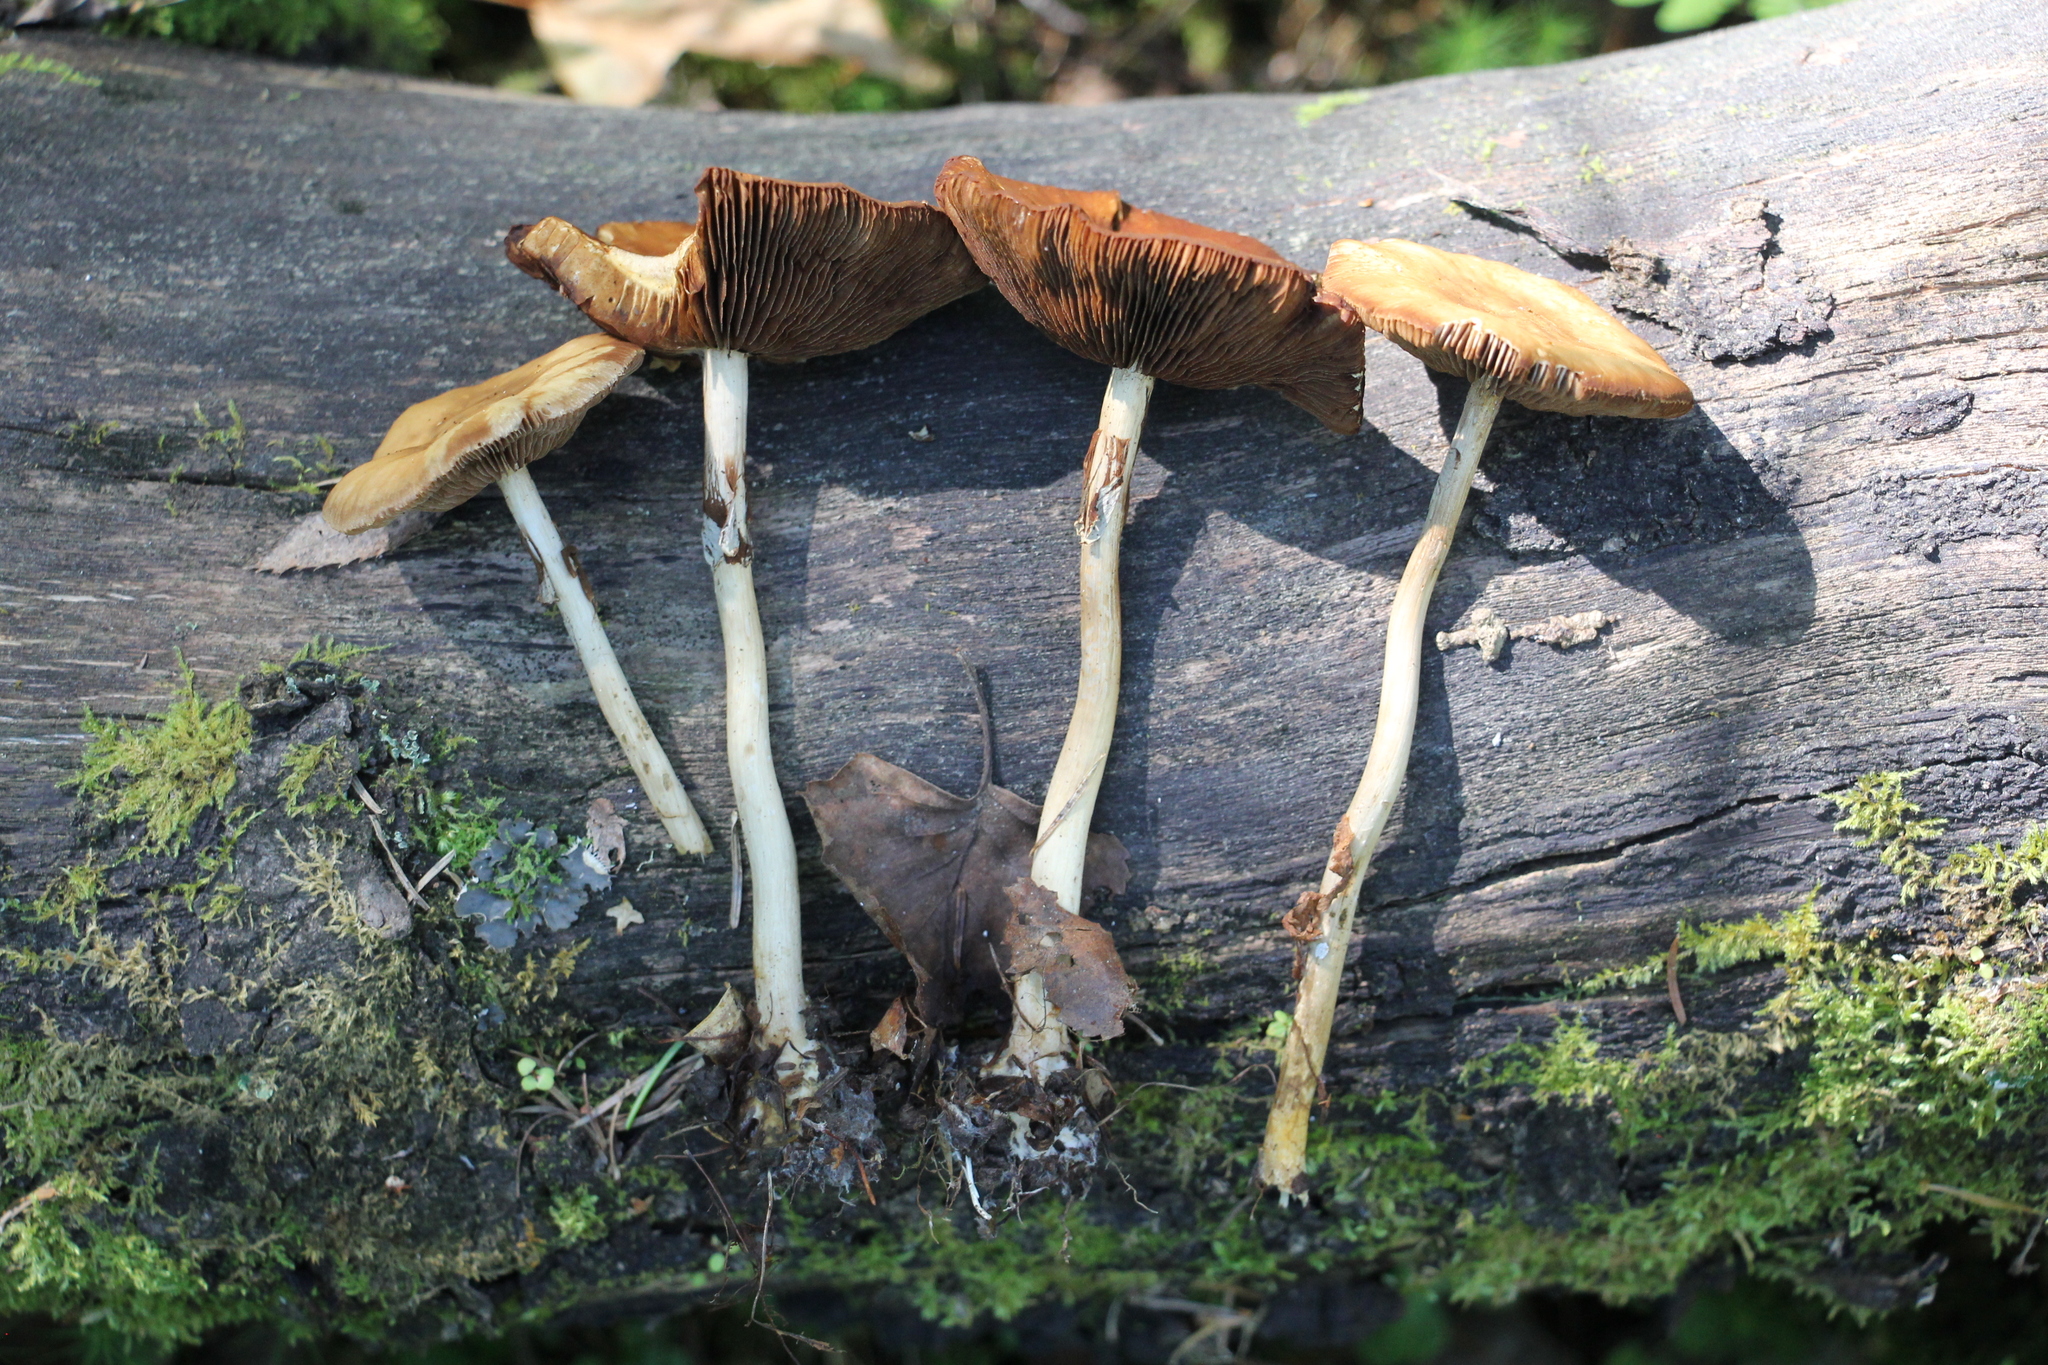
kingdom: Fungi
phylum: Basidiomycota
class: Agaricomycetes
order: Agaricales
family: Strophariaceae
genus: Agrocybe
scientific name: Agrocybe praecox
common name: Spring fieldcap
